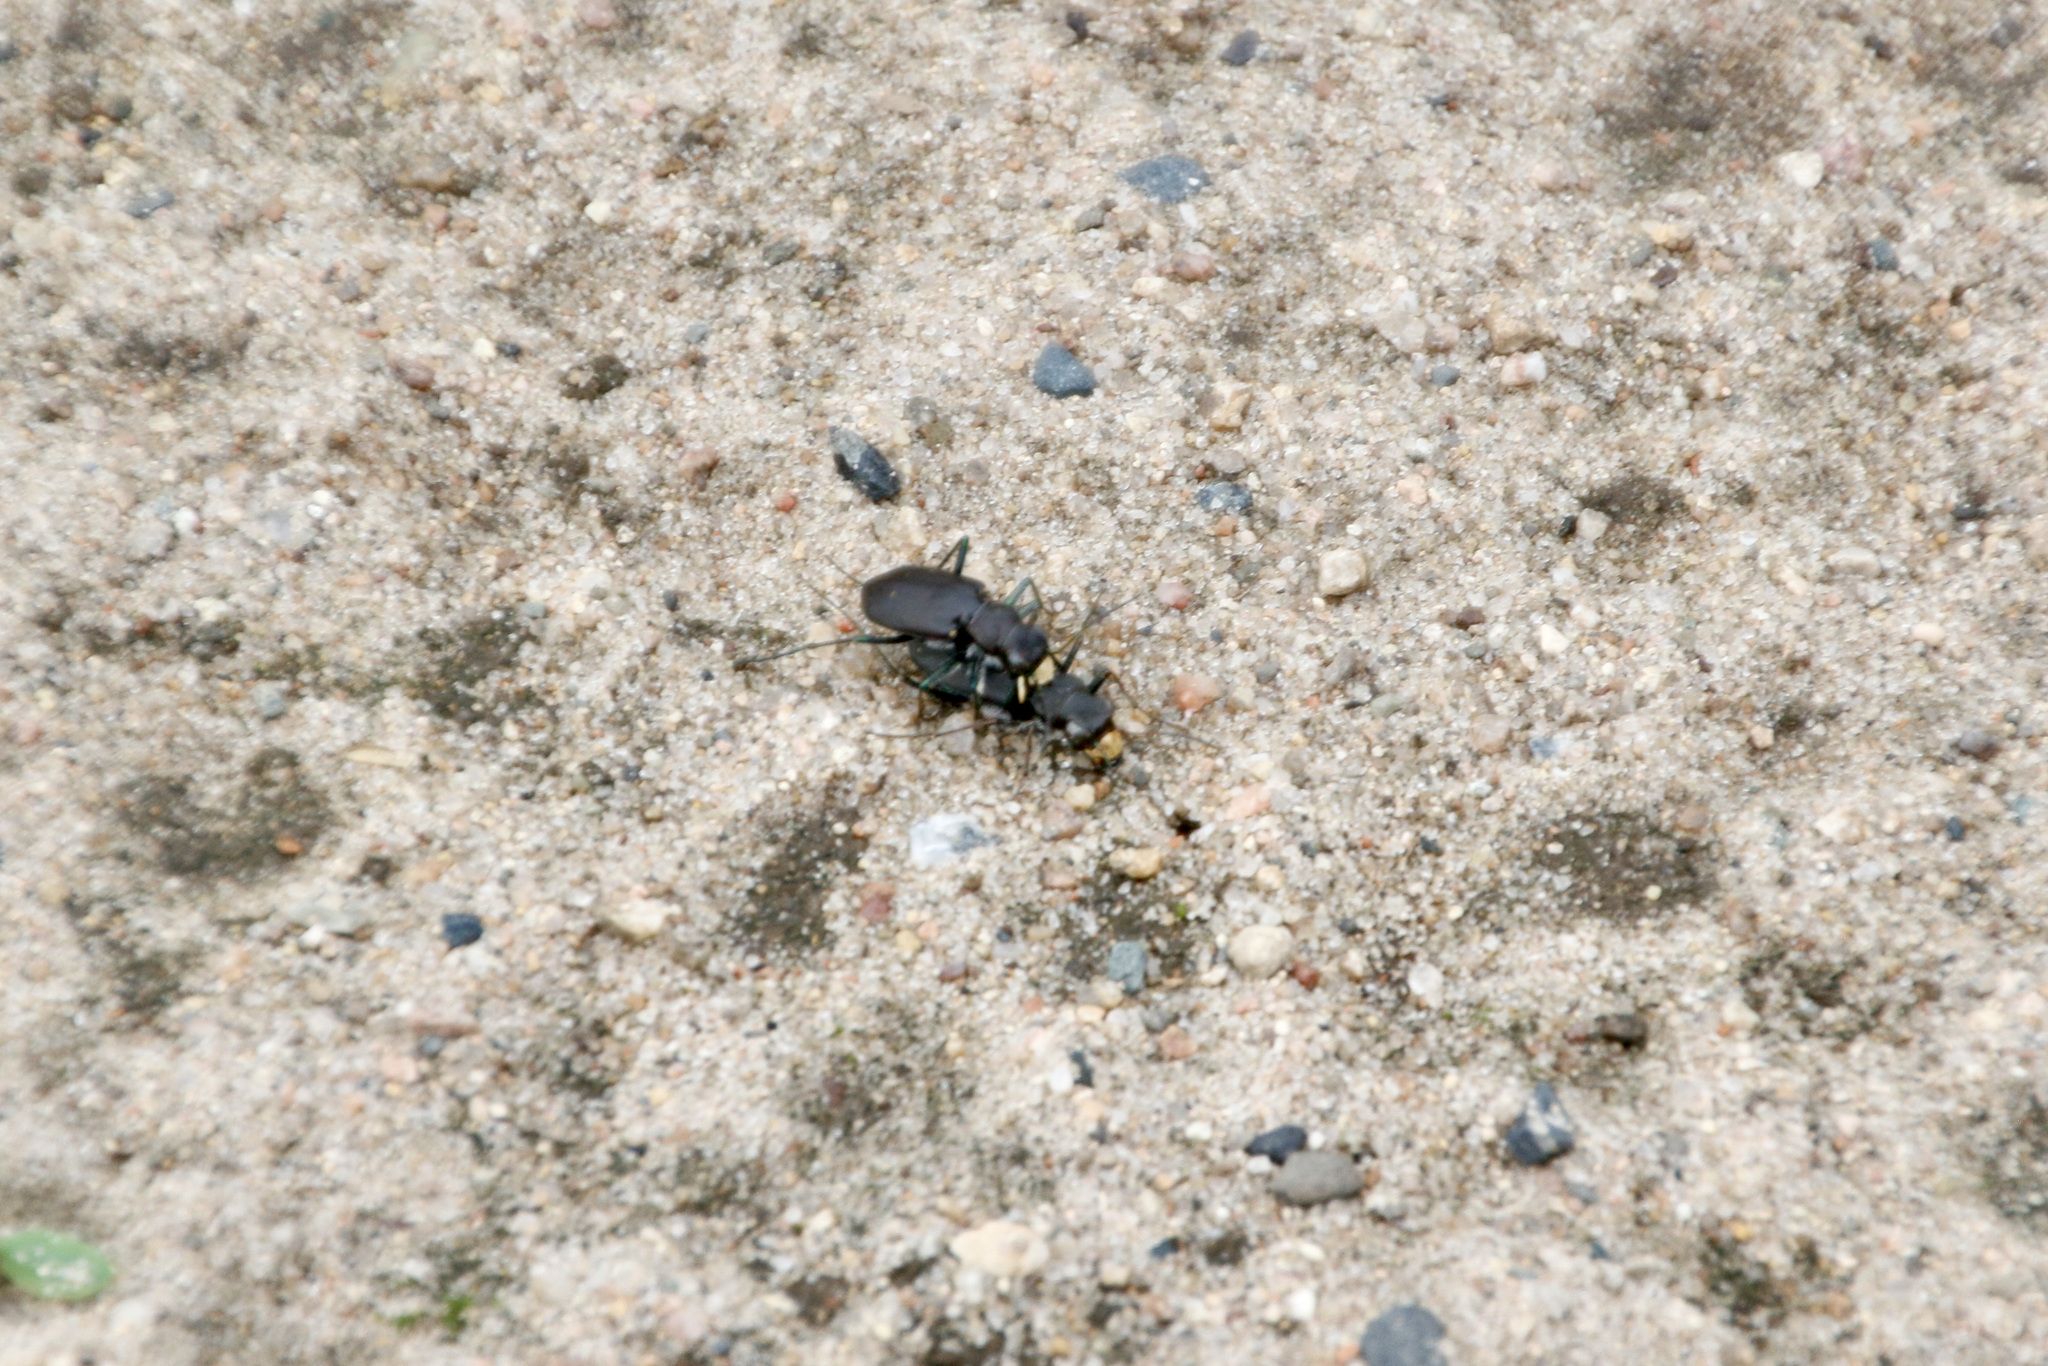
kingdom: Animalia
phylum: Arthropoda
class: Insecta
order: Coleoptera
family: Carabidae
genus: Cicindela
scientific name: Cicindela longilabris
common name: Boreal long-lipped tiger beetle
